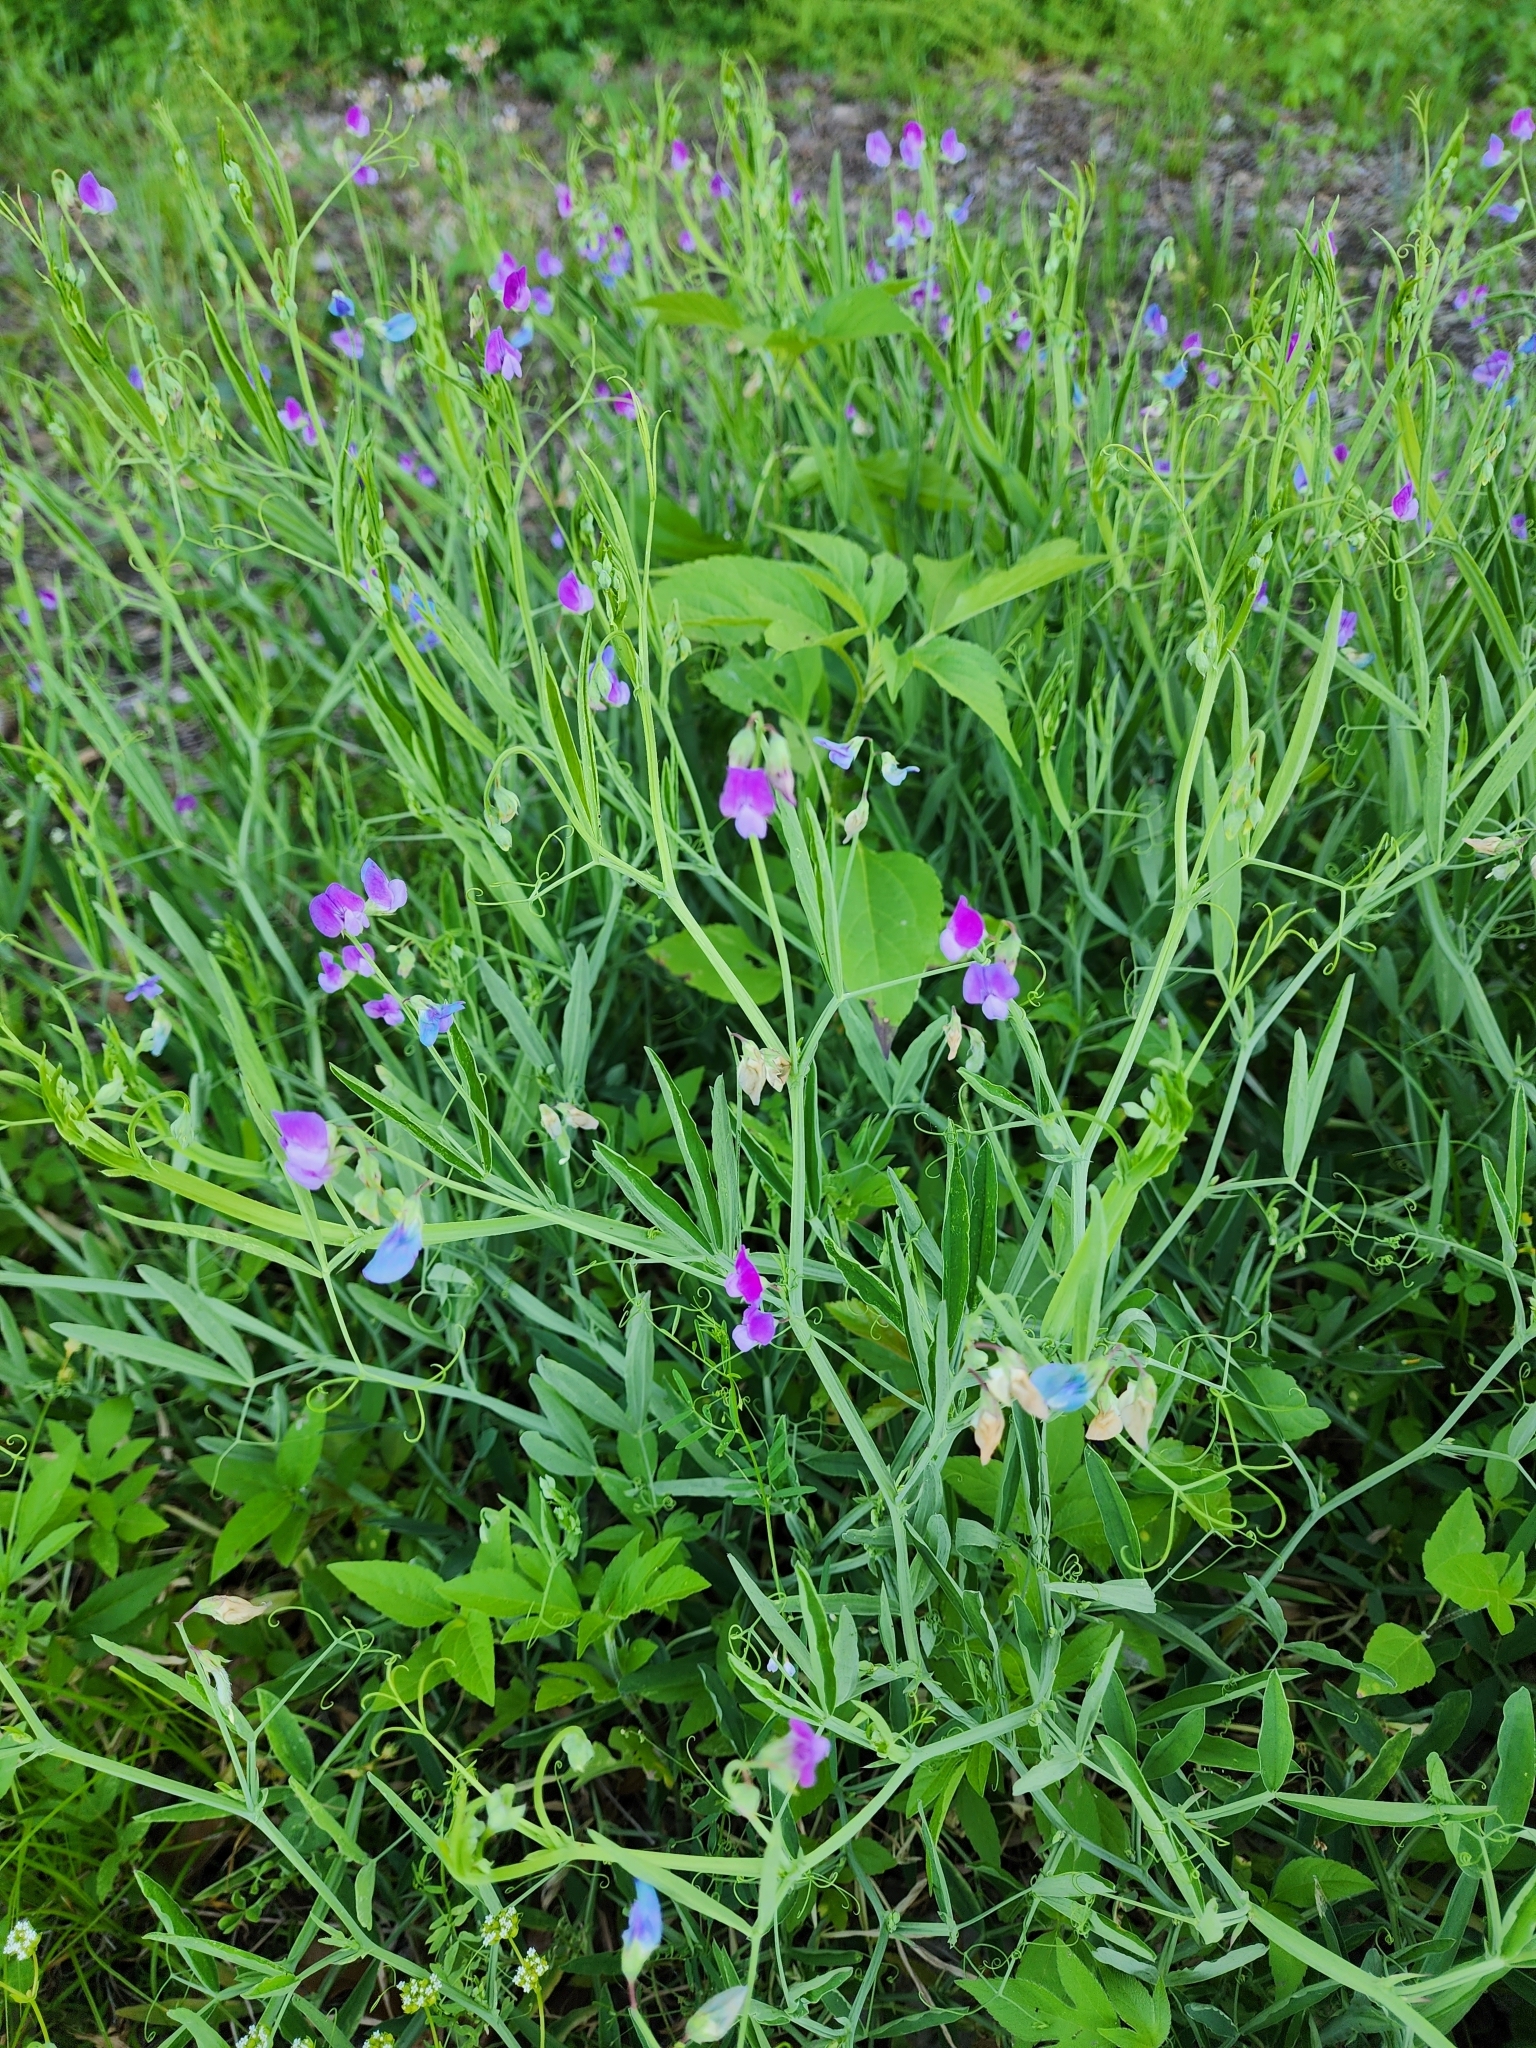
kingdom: Plantae
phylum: Tracheophyta
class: Magnoliopsida
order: Fabales
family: Fabaceae
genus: Lathyrus
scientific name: Lathyrus hirsutus
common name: Hairy vetchling
